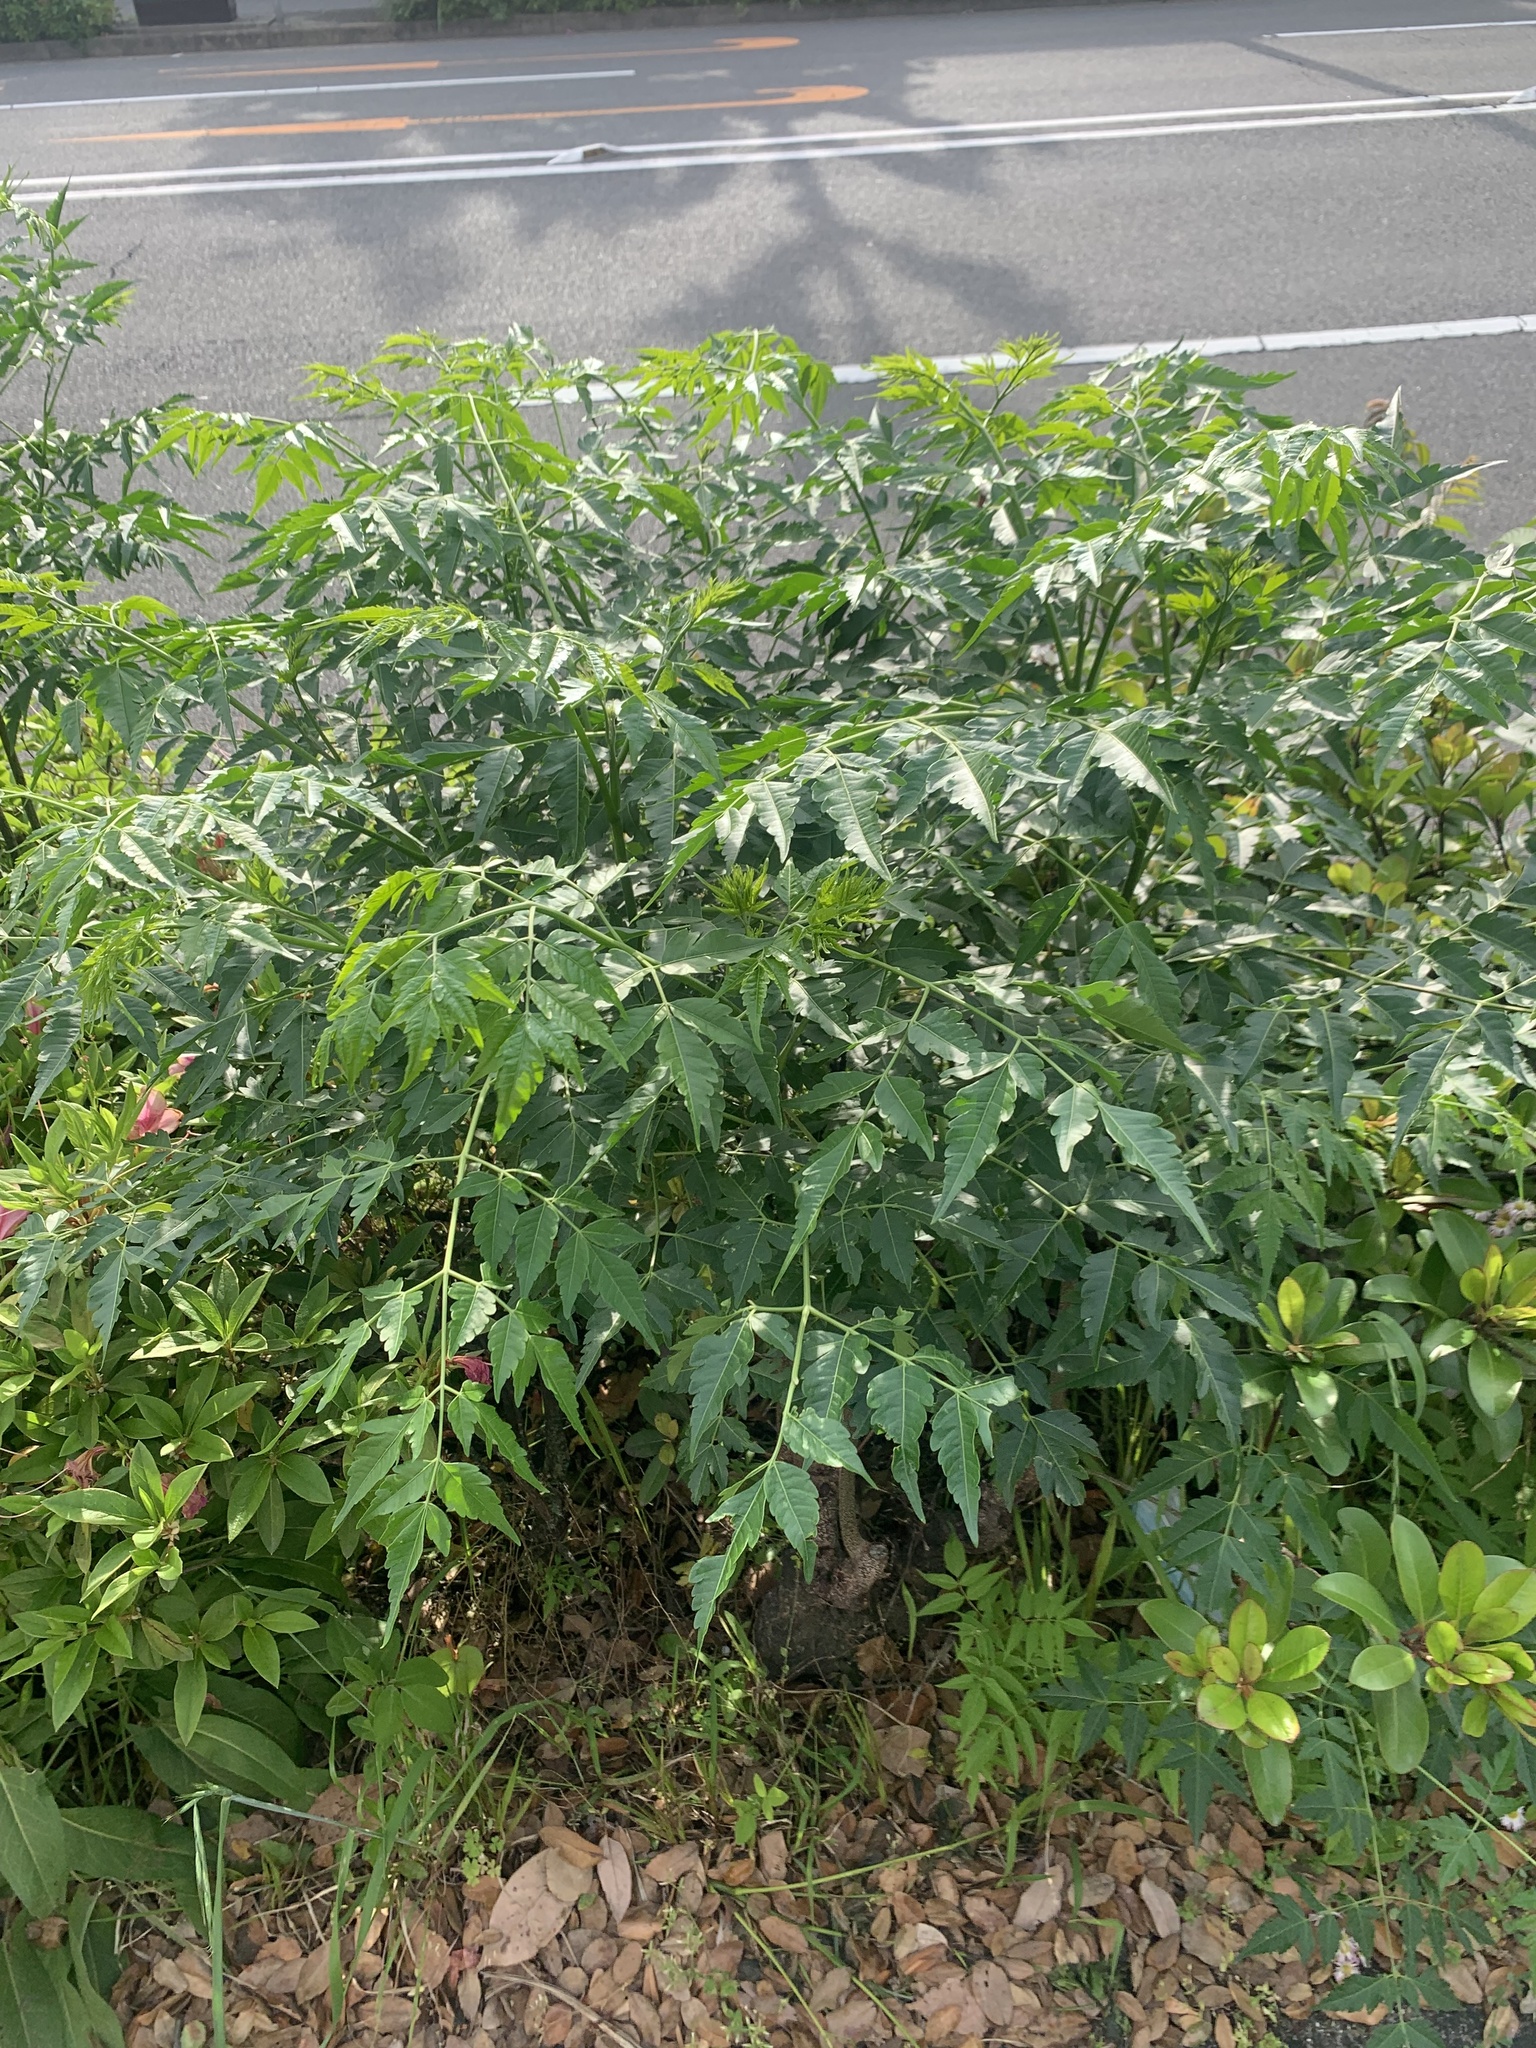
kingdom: Plantae
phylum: Tracheophyta
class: Magnoliopsida
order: Sapindales
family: Meliaceae
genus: Melia
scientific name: Melia azedarach
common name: Chinaberrytree
